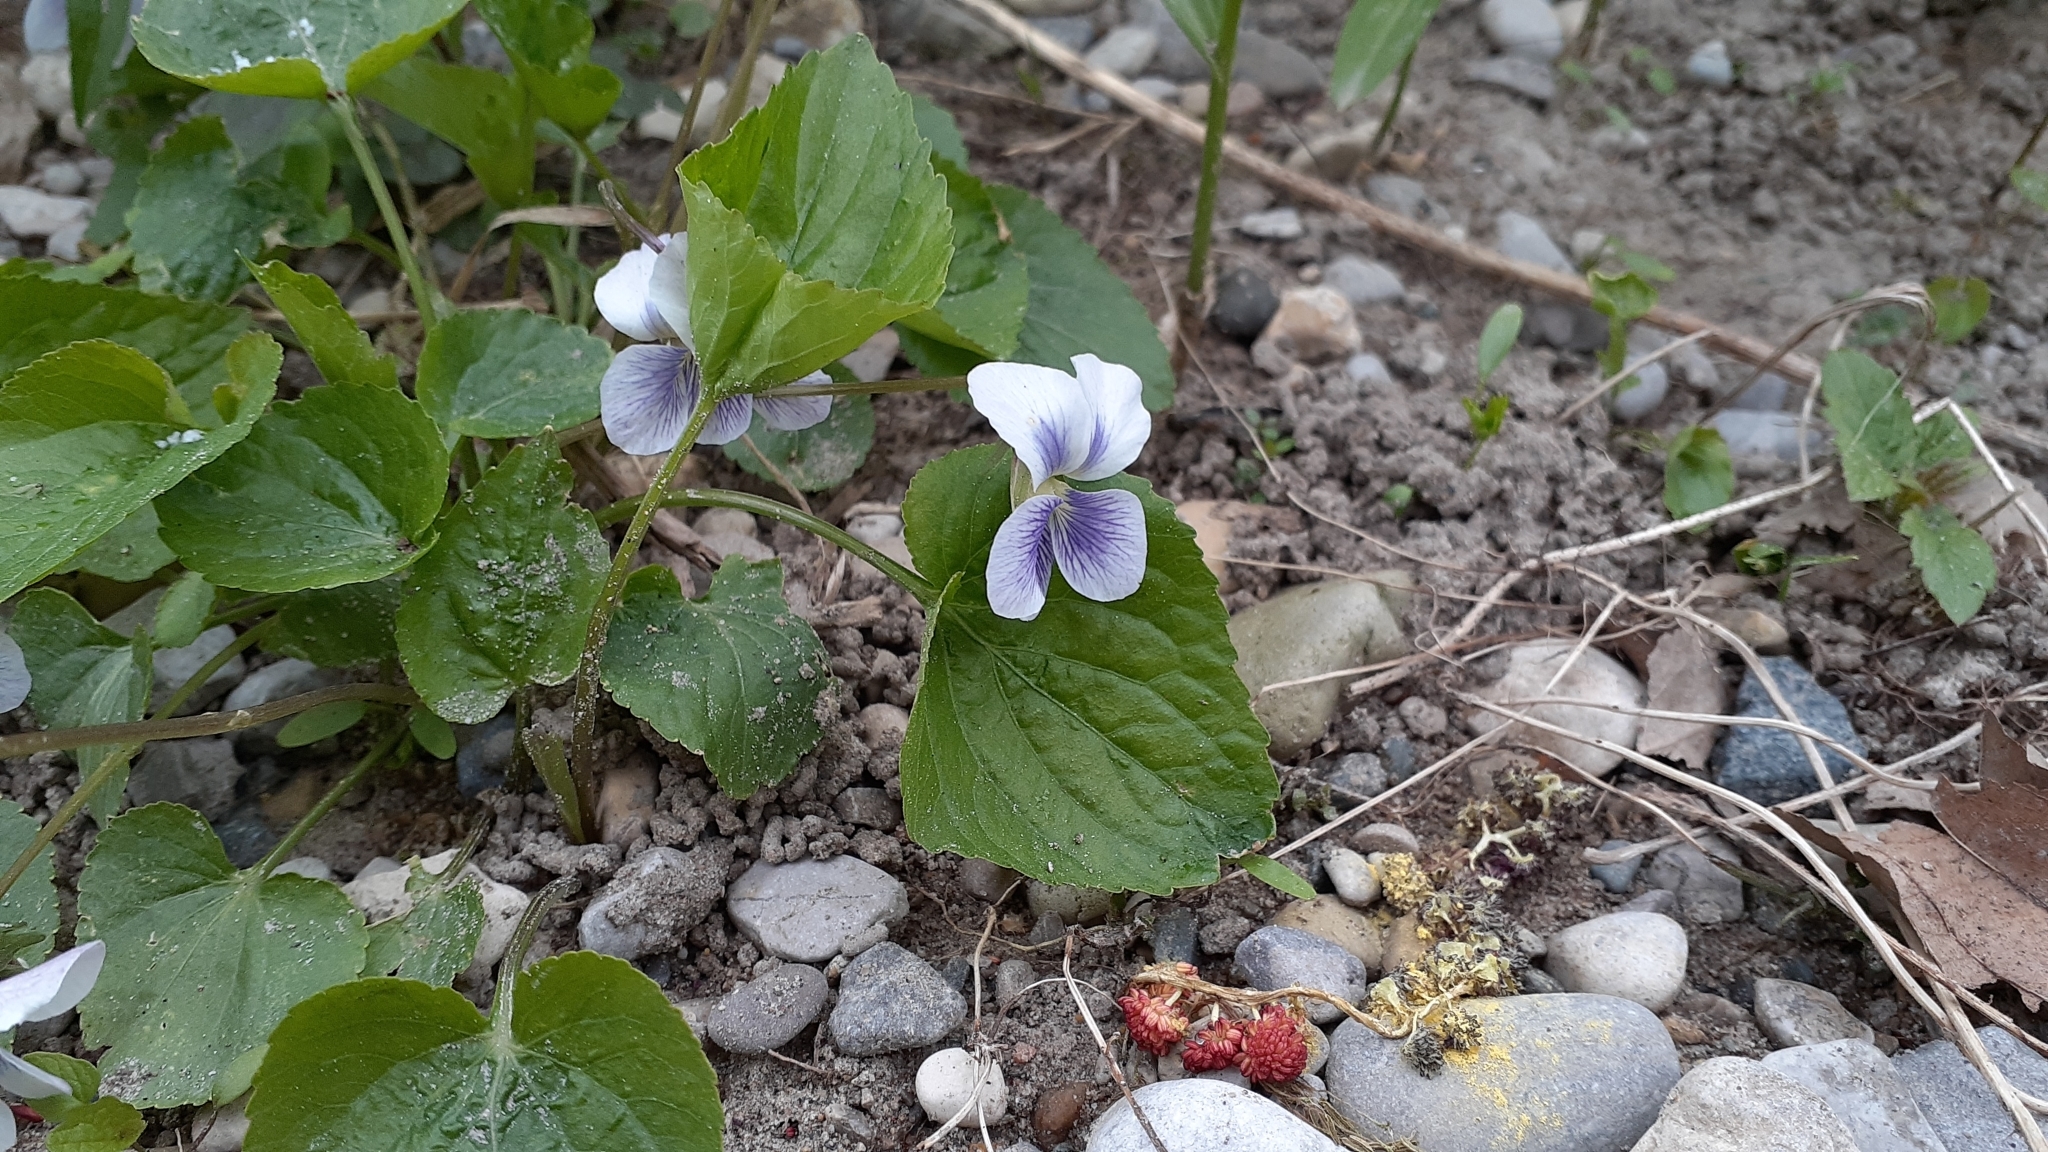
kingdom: Plantae
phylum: Tracheophyta
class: Magnoliopsida
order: Malpighiales
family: Violaceae
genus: Viola
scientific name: Viola sororia
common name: Dooryard violet
